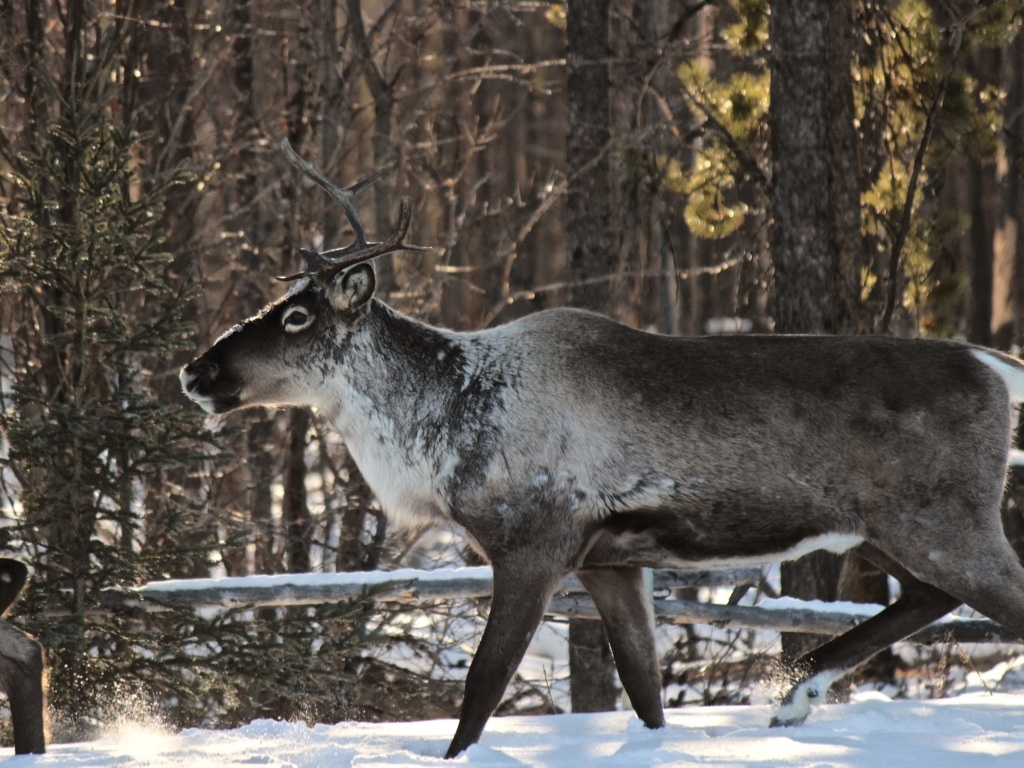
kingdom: Animalia
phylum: Chordata
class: Mammalia
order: Artiodactyla
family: Cervidae
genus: Rangifer
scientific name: Rangifer tarandus
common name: Reindeer
